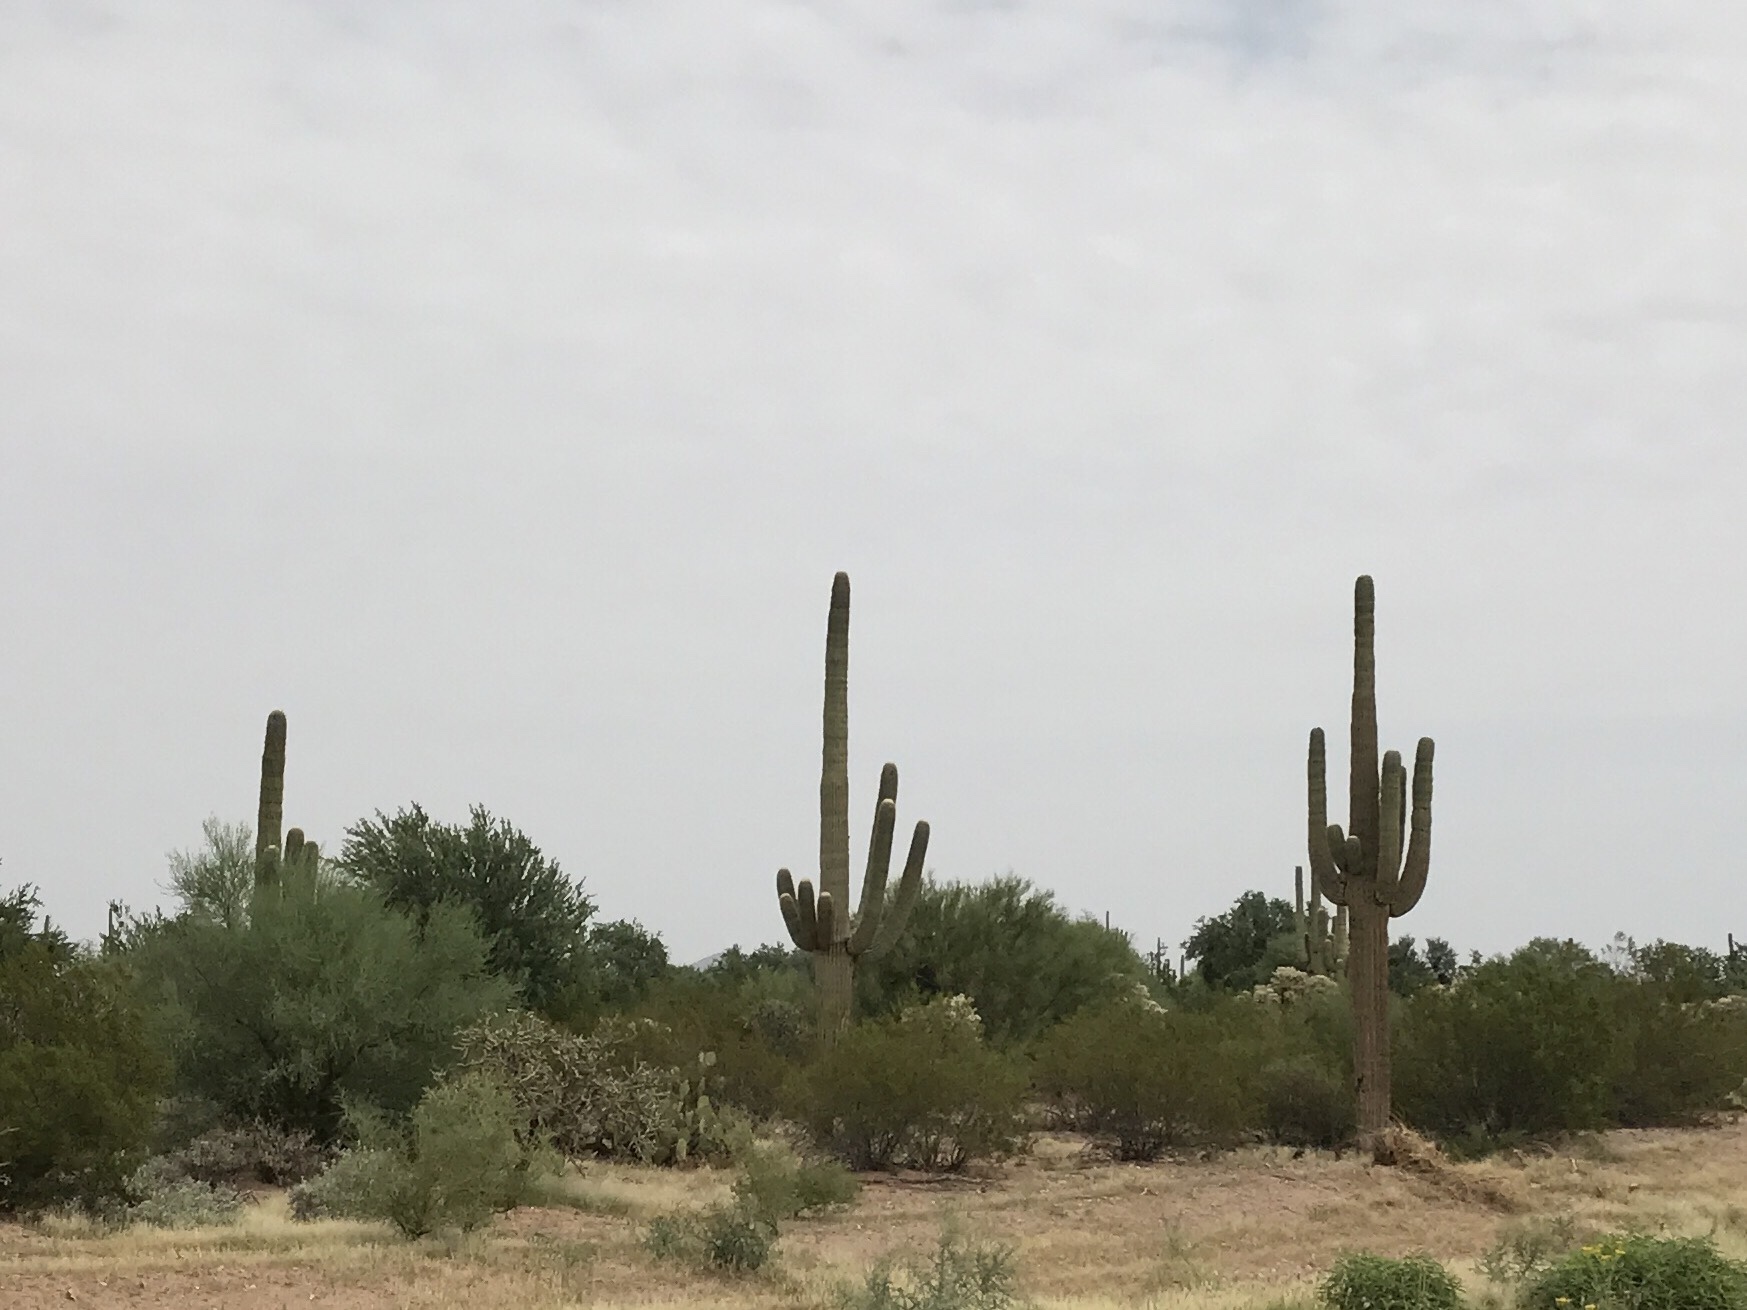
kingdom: Plantae
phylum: Tracheophyta
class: Magnoliopsida
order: Caryophyllales
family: Cactaceae
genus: Carnegiea
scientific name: Carnegiea gigantea
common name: Saguaro
